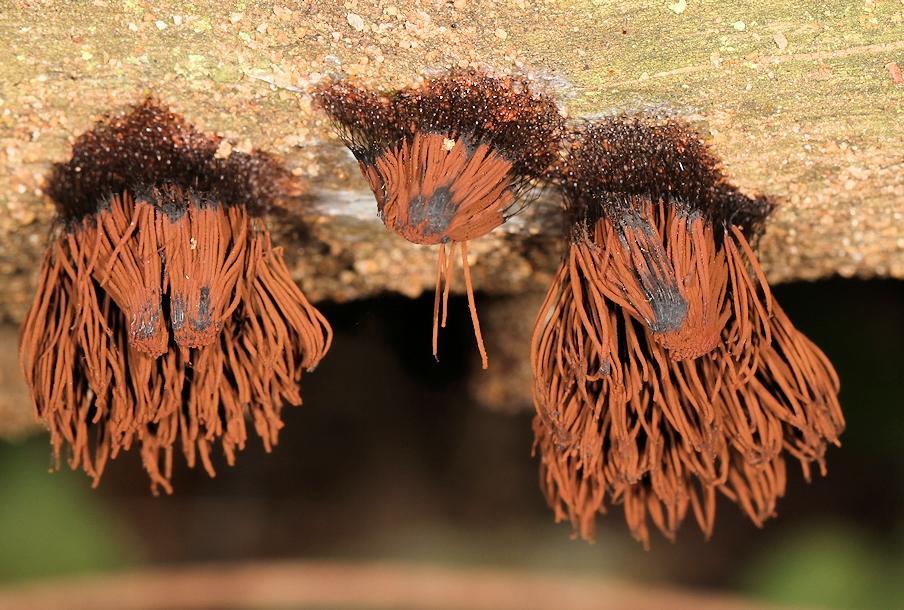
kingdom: Protozoa
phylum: Mycetozoa
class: Myxomycetes
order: Stemonitidales
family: Stemonitidaceae
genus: Stemonitis
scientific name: Stemonitis splendens
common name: Chocolate tube slime
